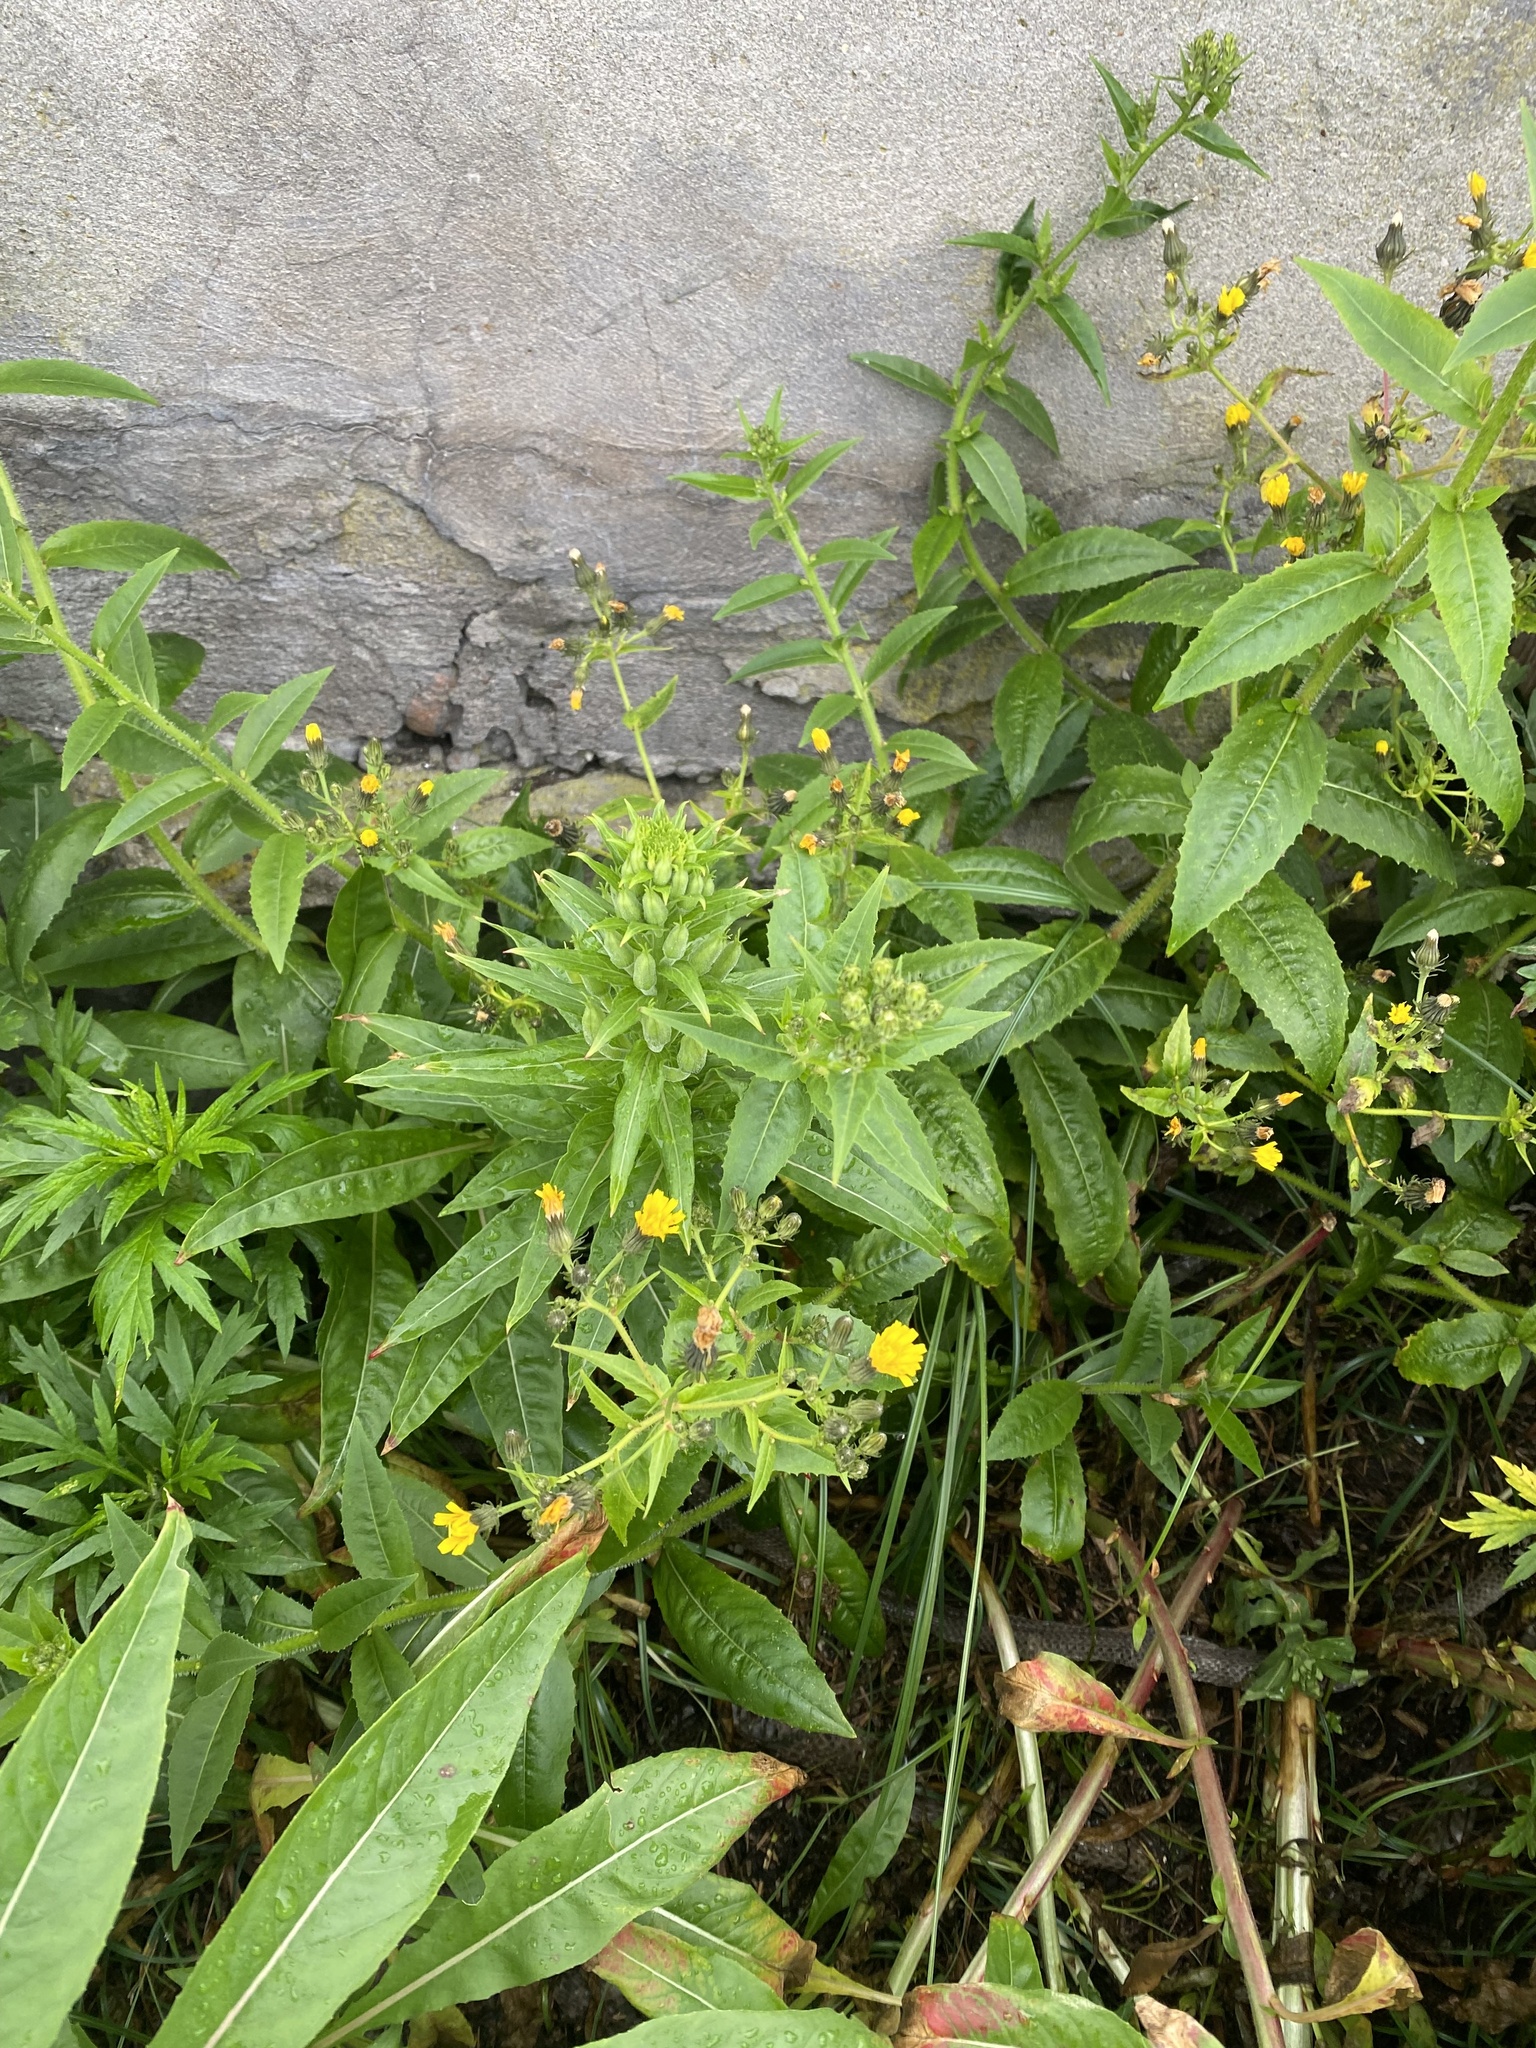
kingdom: Plantae
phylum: Tracheophyta
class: Magnoliopsida
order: Asterales
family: Asteraceae
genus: Picris
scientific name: Picris japonica
